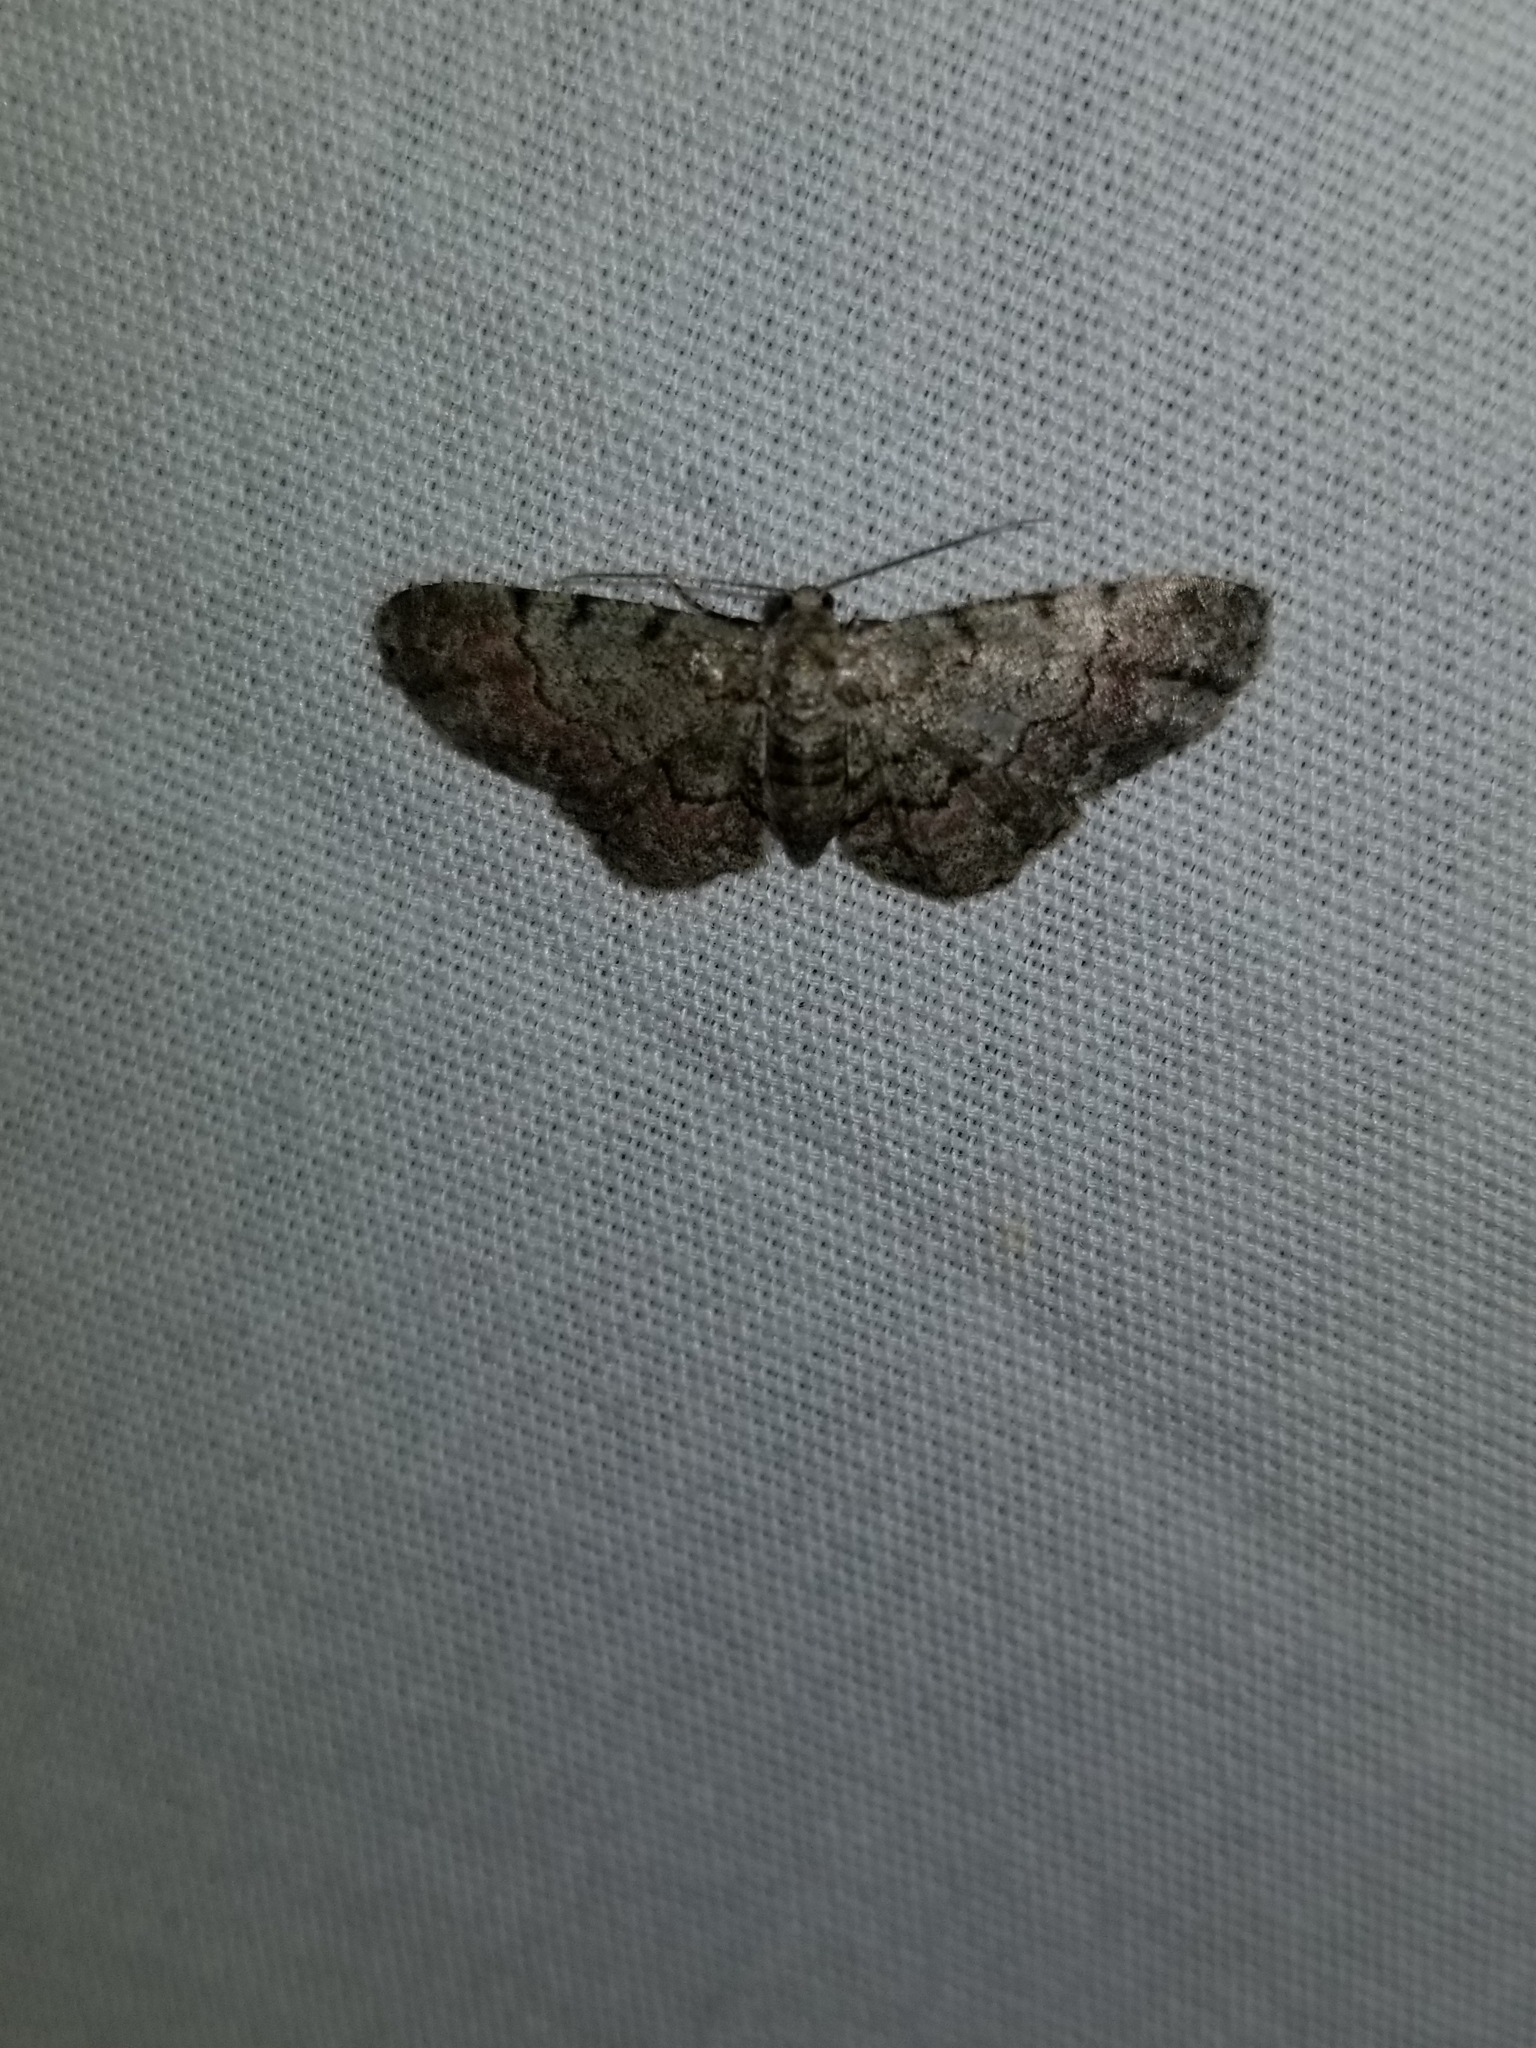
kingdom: Animalia
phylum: Arthropoda
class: Insecta
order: Lepidoptera
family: Geometridae
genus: Glenoides
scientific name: Glenoides texanaria
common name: Texas gray
